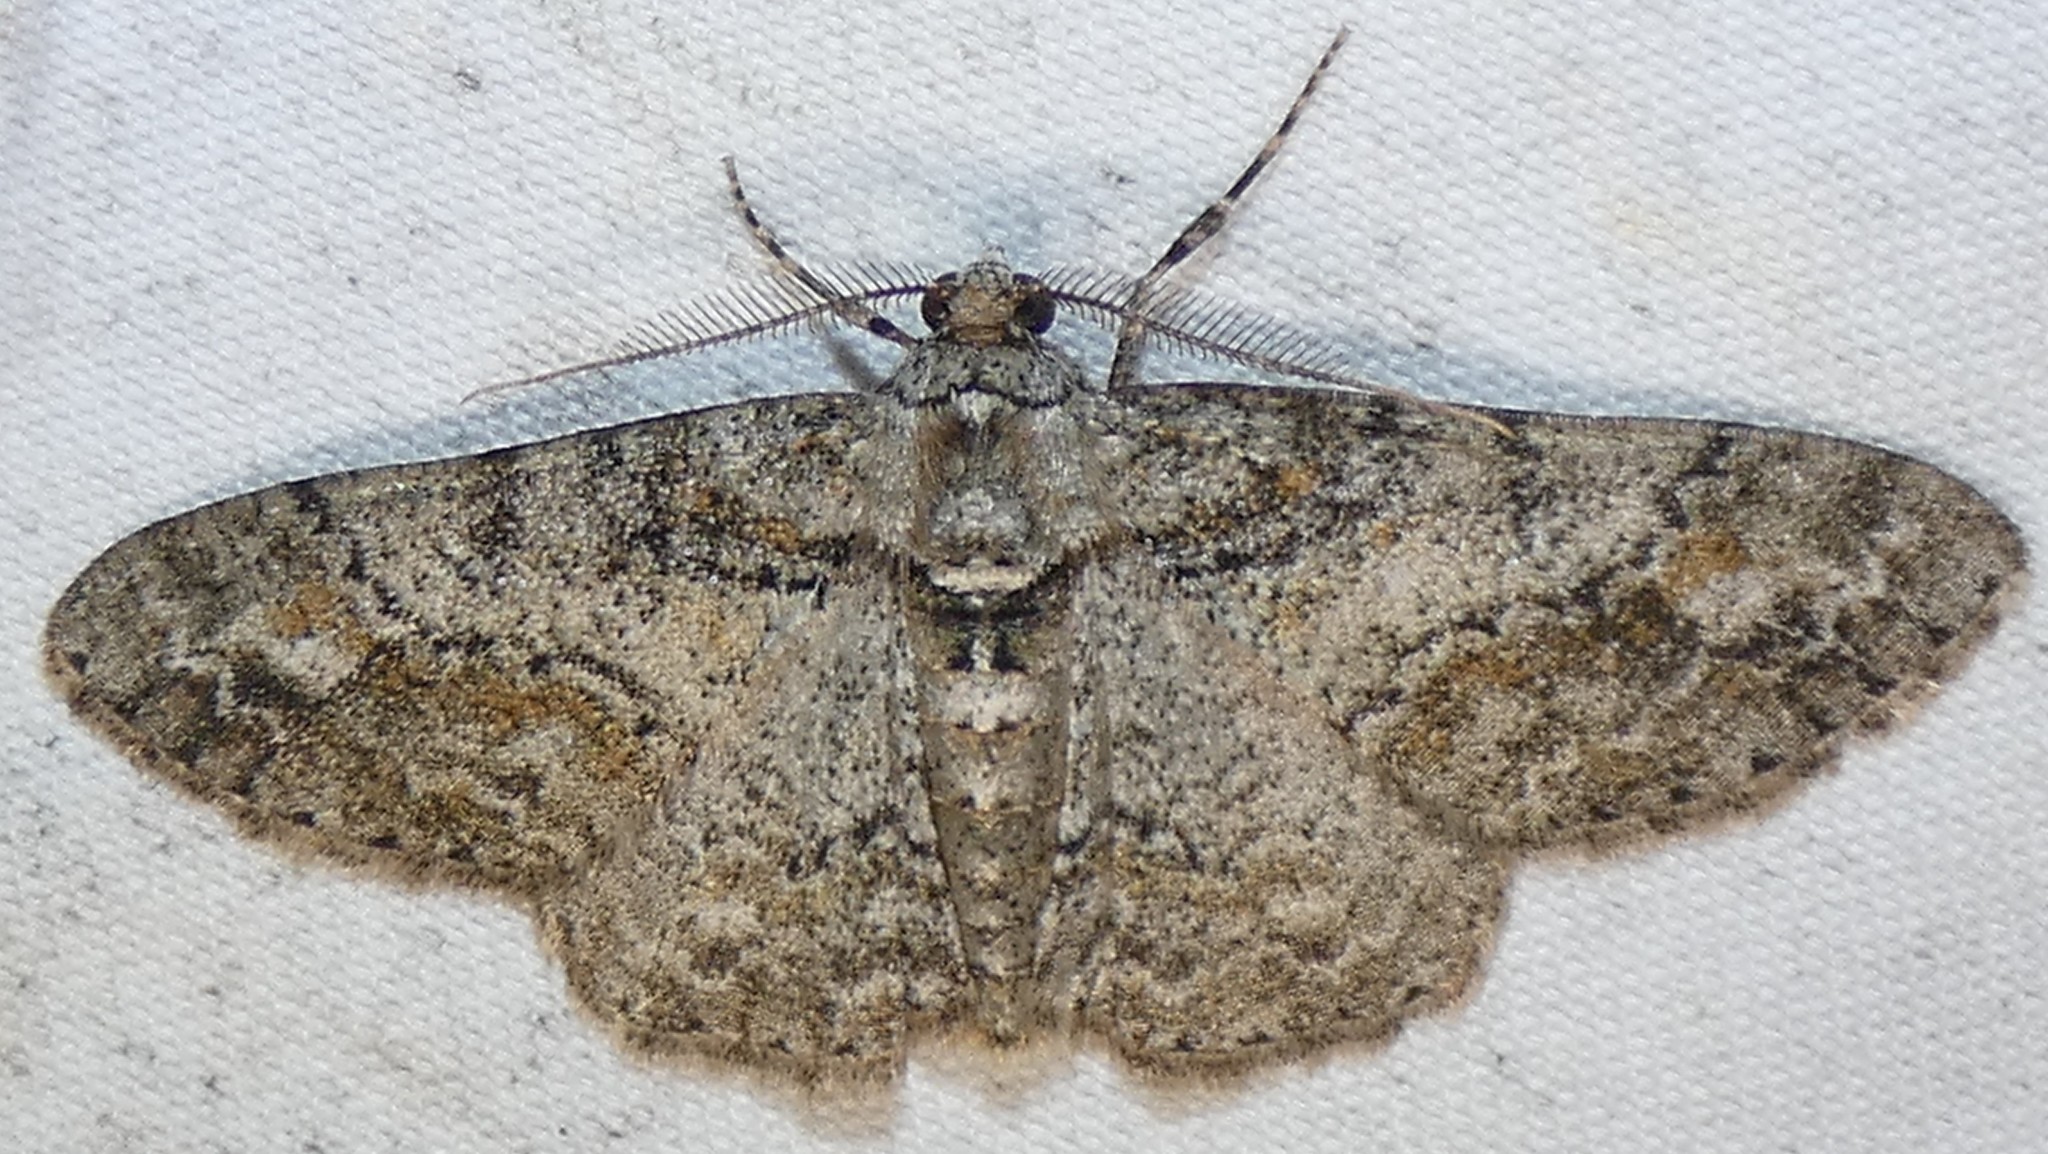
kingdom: Animalia
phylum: Arthropoda
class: Insecta
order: Lepidoptera
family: Geometridae
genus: Cleora
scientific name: Cleora sublunaria
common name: Double-lined gray
